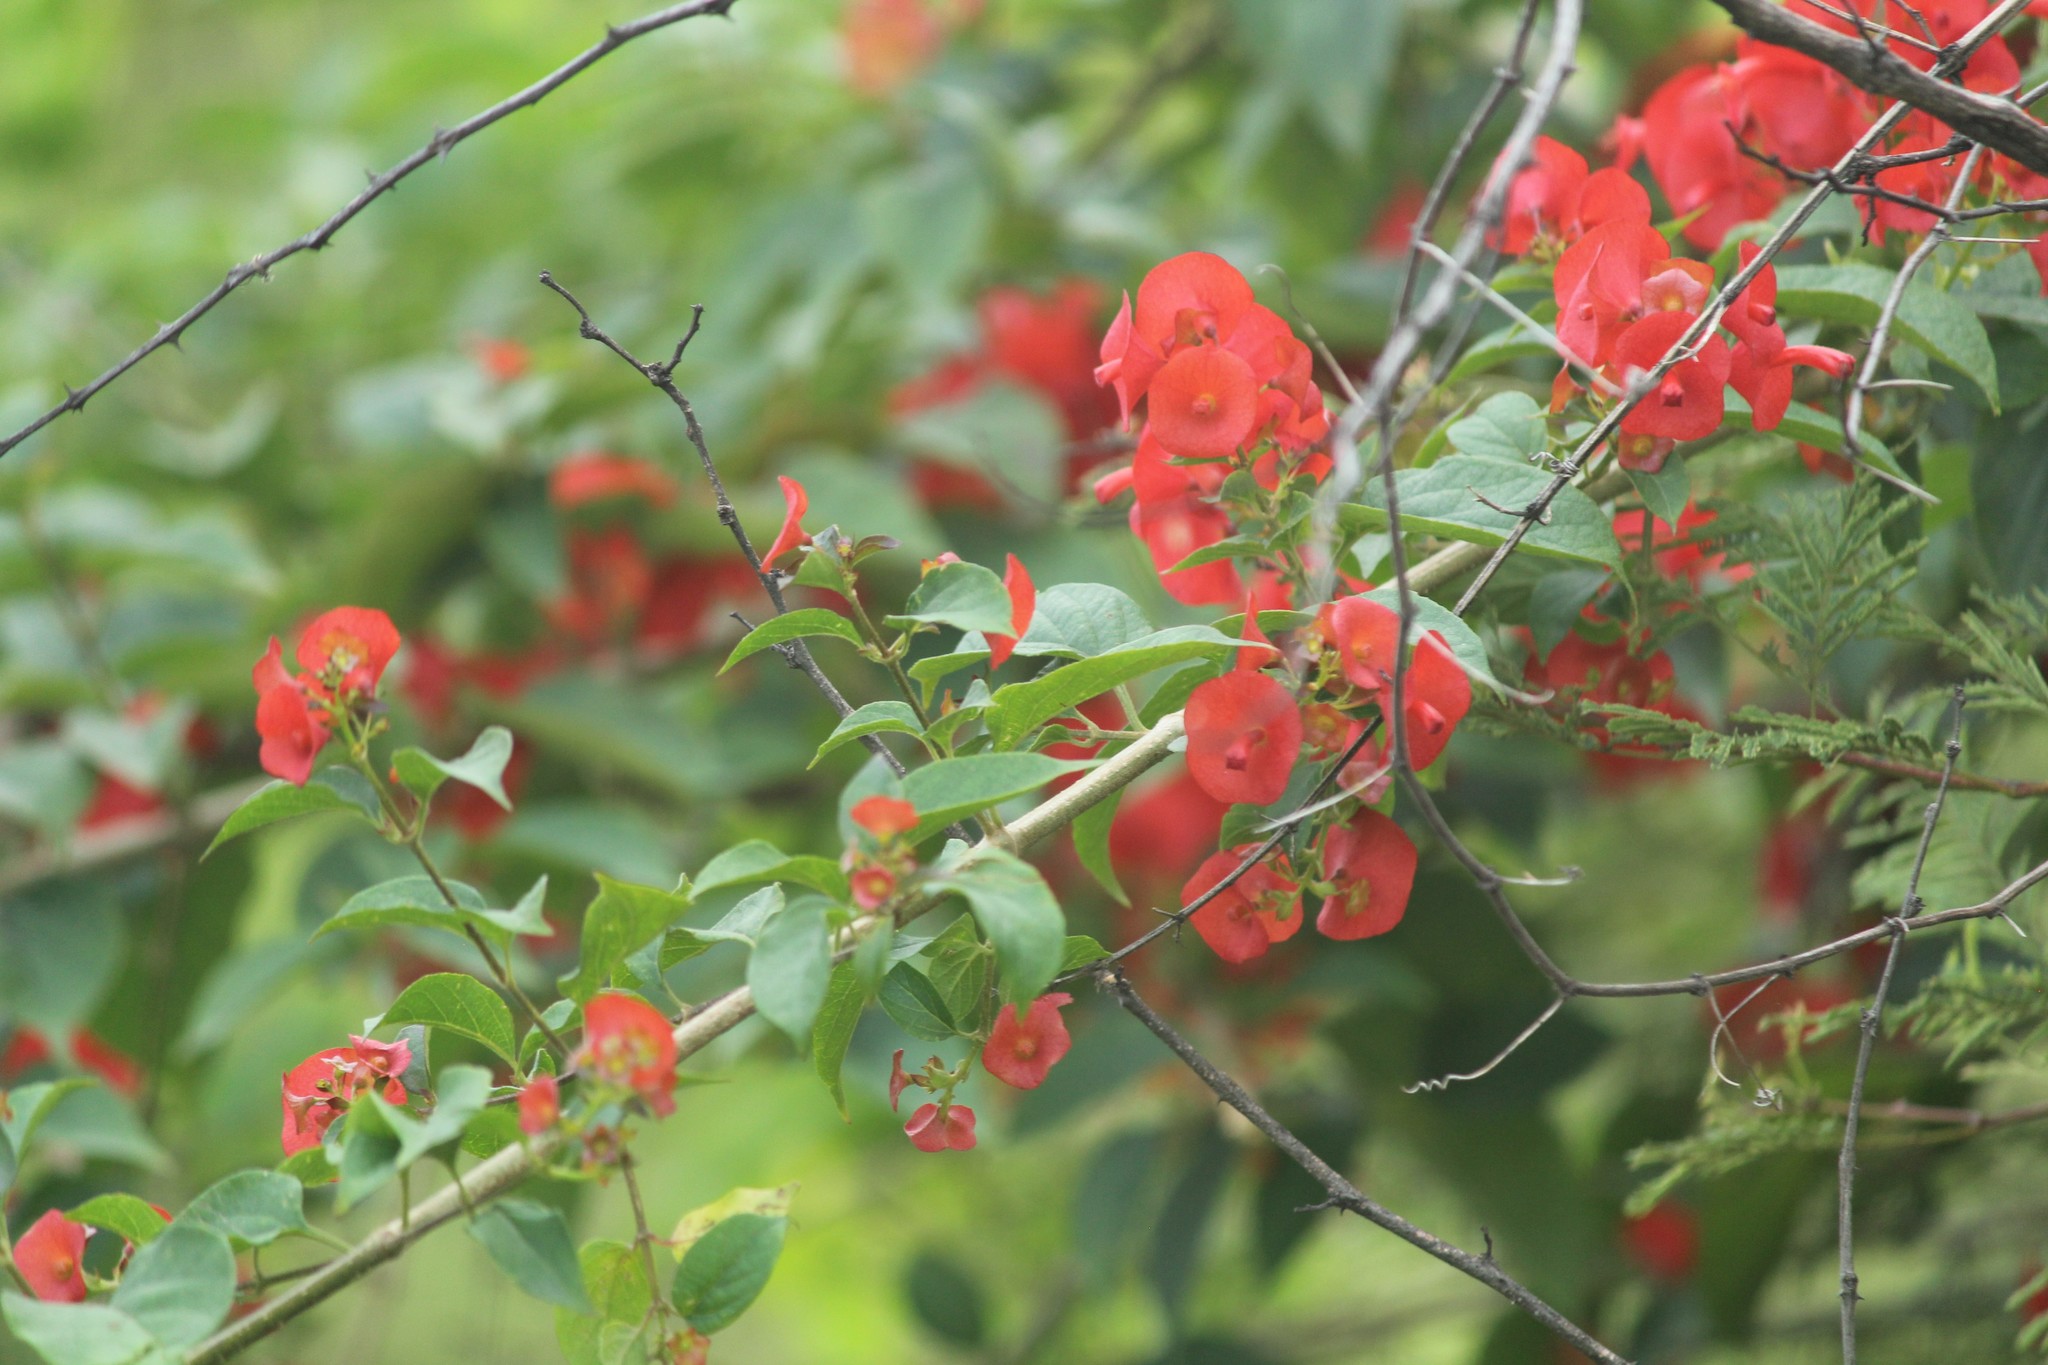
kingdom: Plantae
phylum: Tracheophyta
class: Magnoliopsida
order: Lamiales
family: Lamiaceae
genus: Holmskioldia
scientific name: Holmskioldia sanguinea
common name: Chinese hatplant
